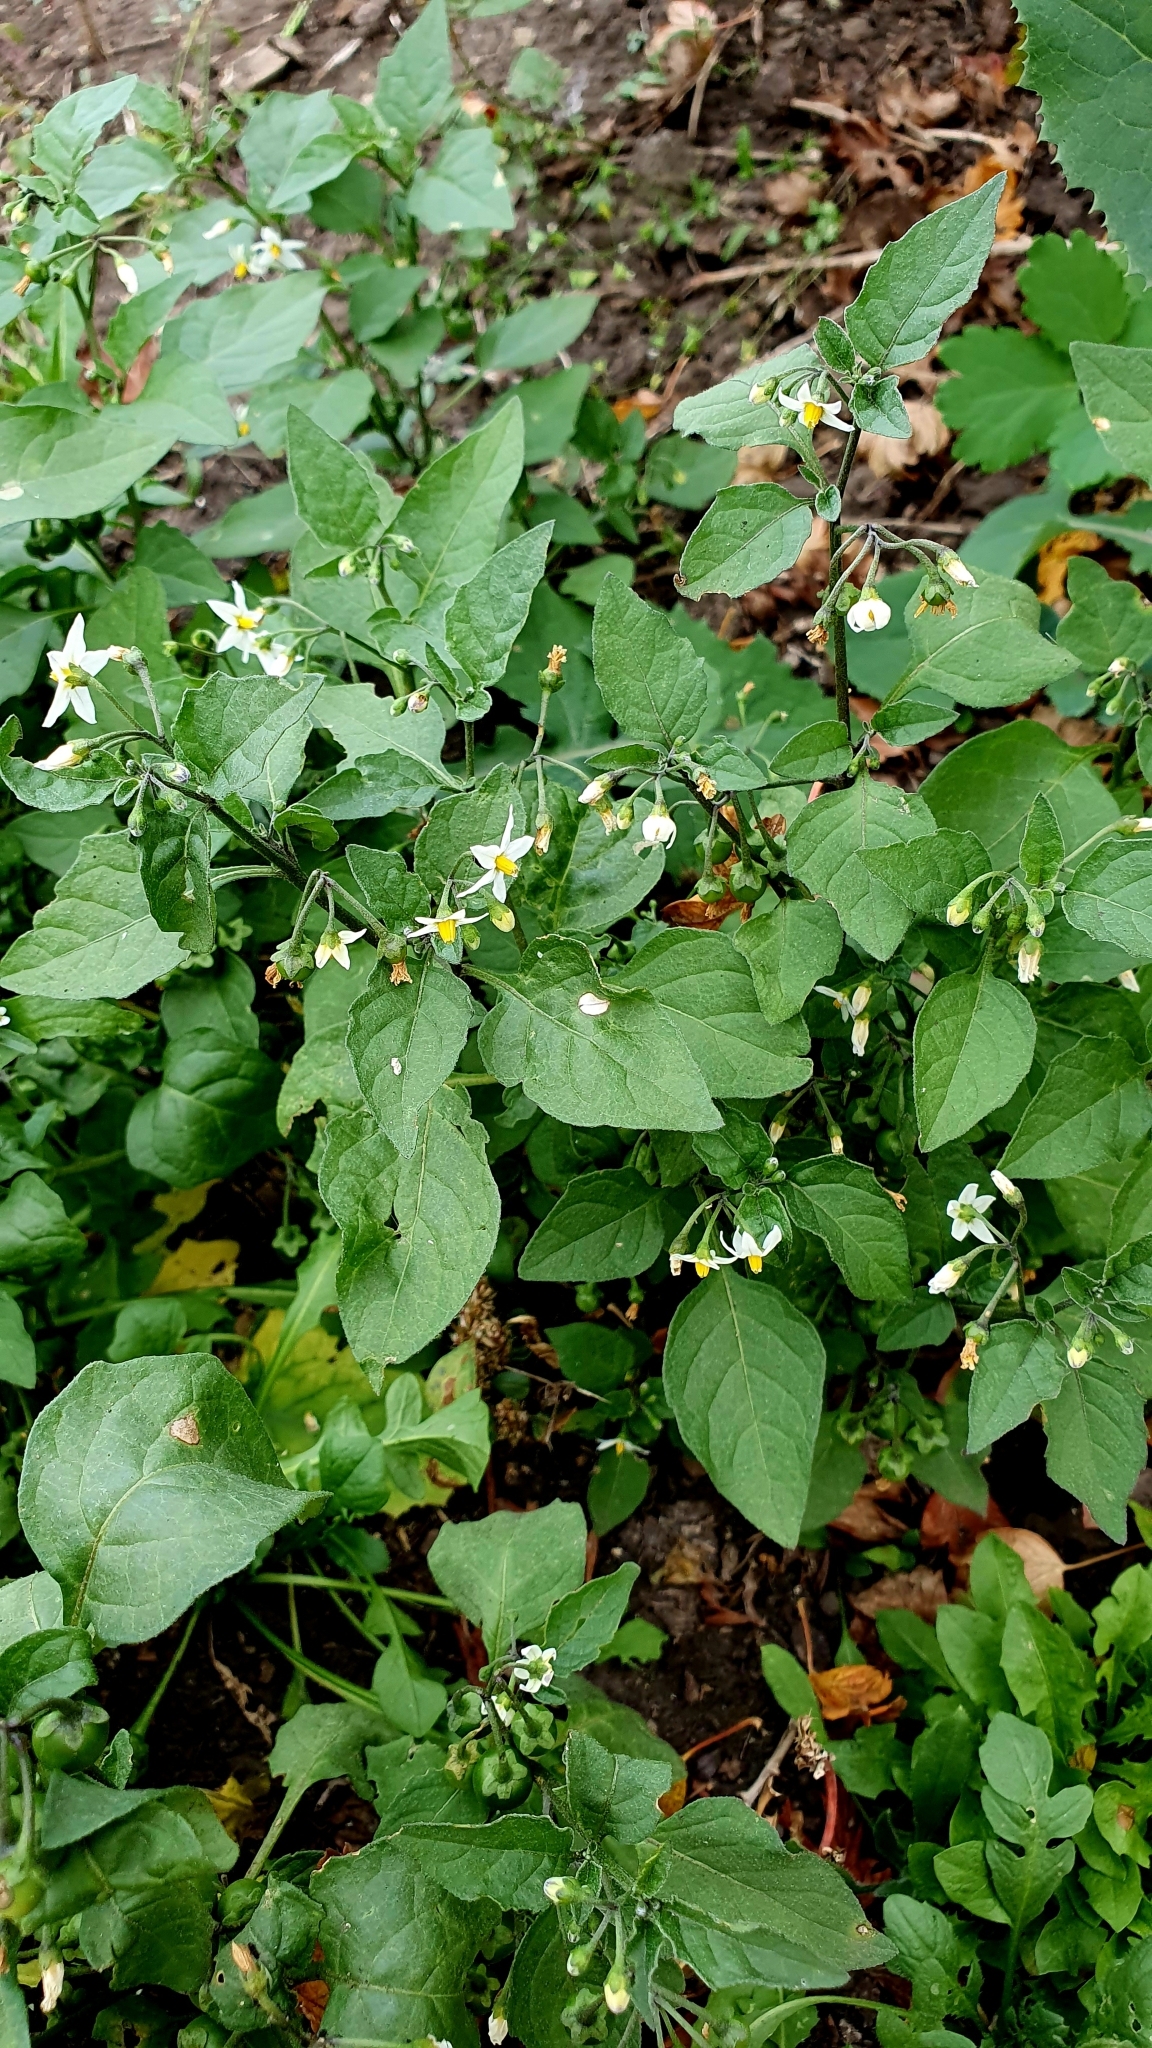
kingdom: Plantae
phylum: Tracheophyta
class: Magnoliopsida
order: Solanales
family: Solanaceae
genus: Solanum
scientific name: Solanum nigrum
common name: Black nightshade
